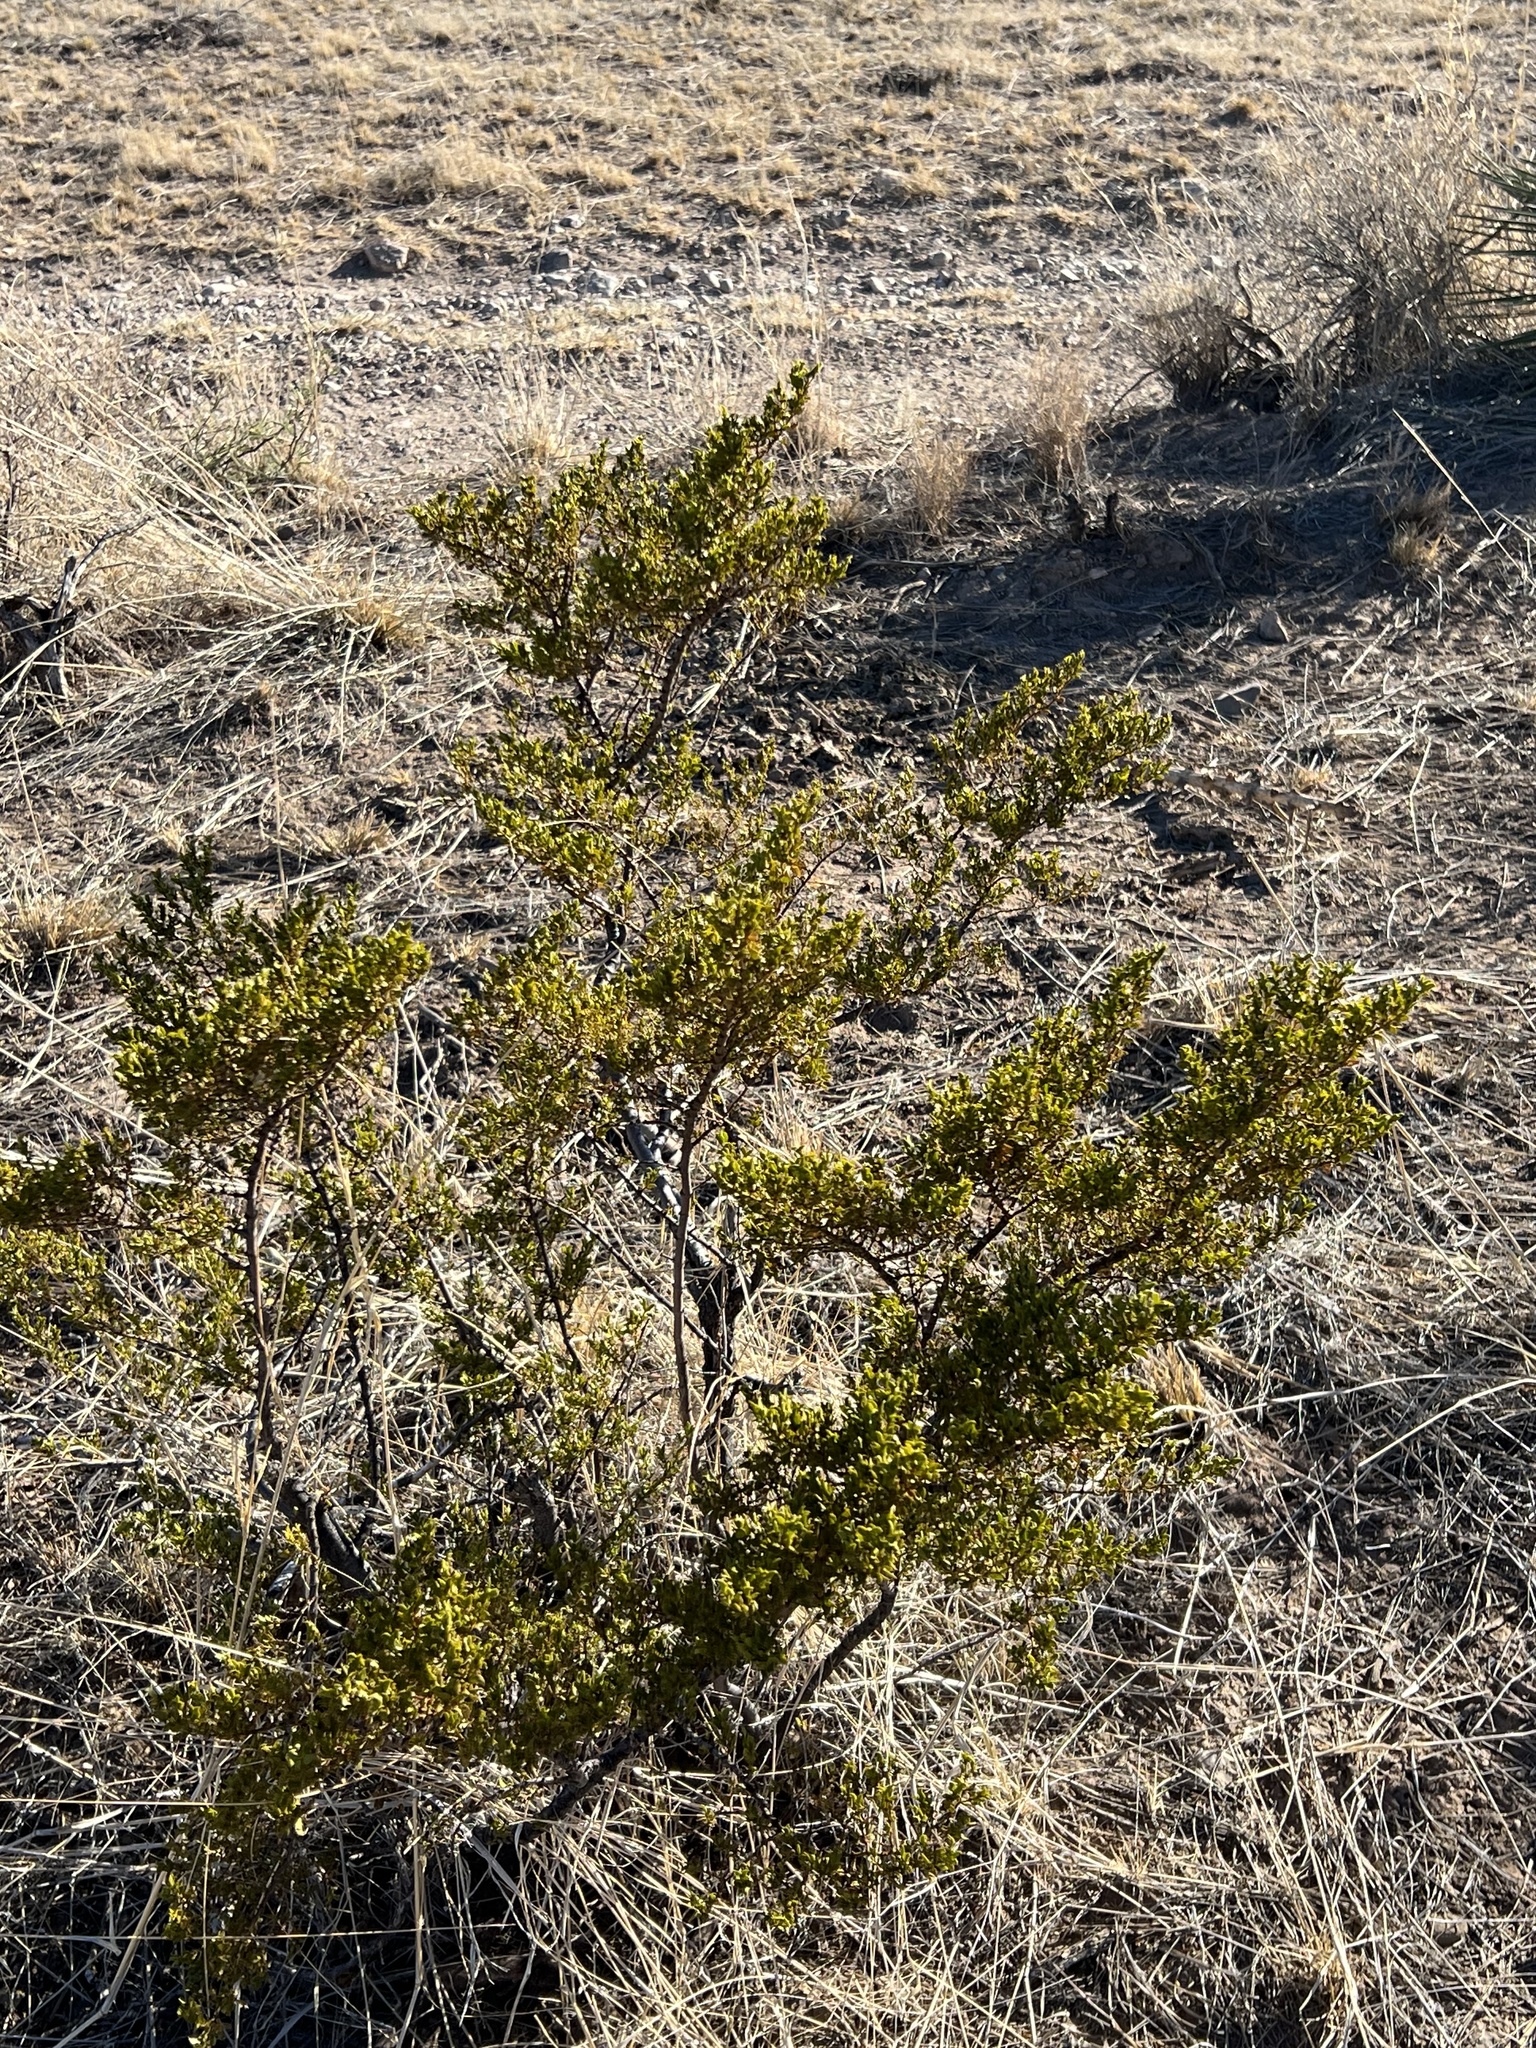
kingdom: Plantae
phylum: Tracheophyta
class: Magnoliopsida
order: Zygophyllales
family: Zygophyllaceae
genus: Larrea
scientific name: Larrea tridentata
